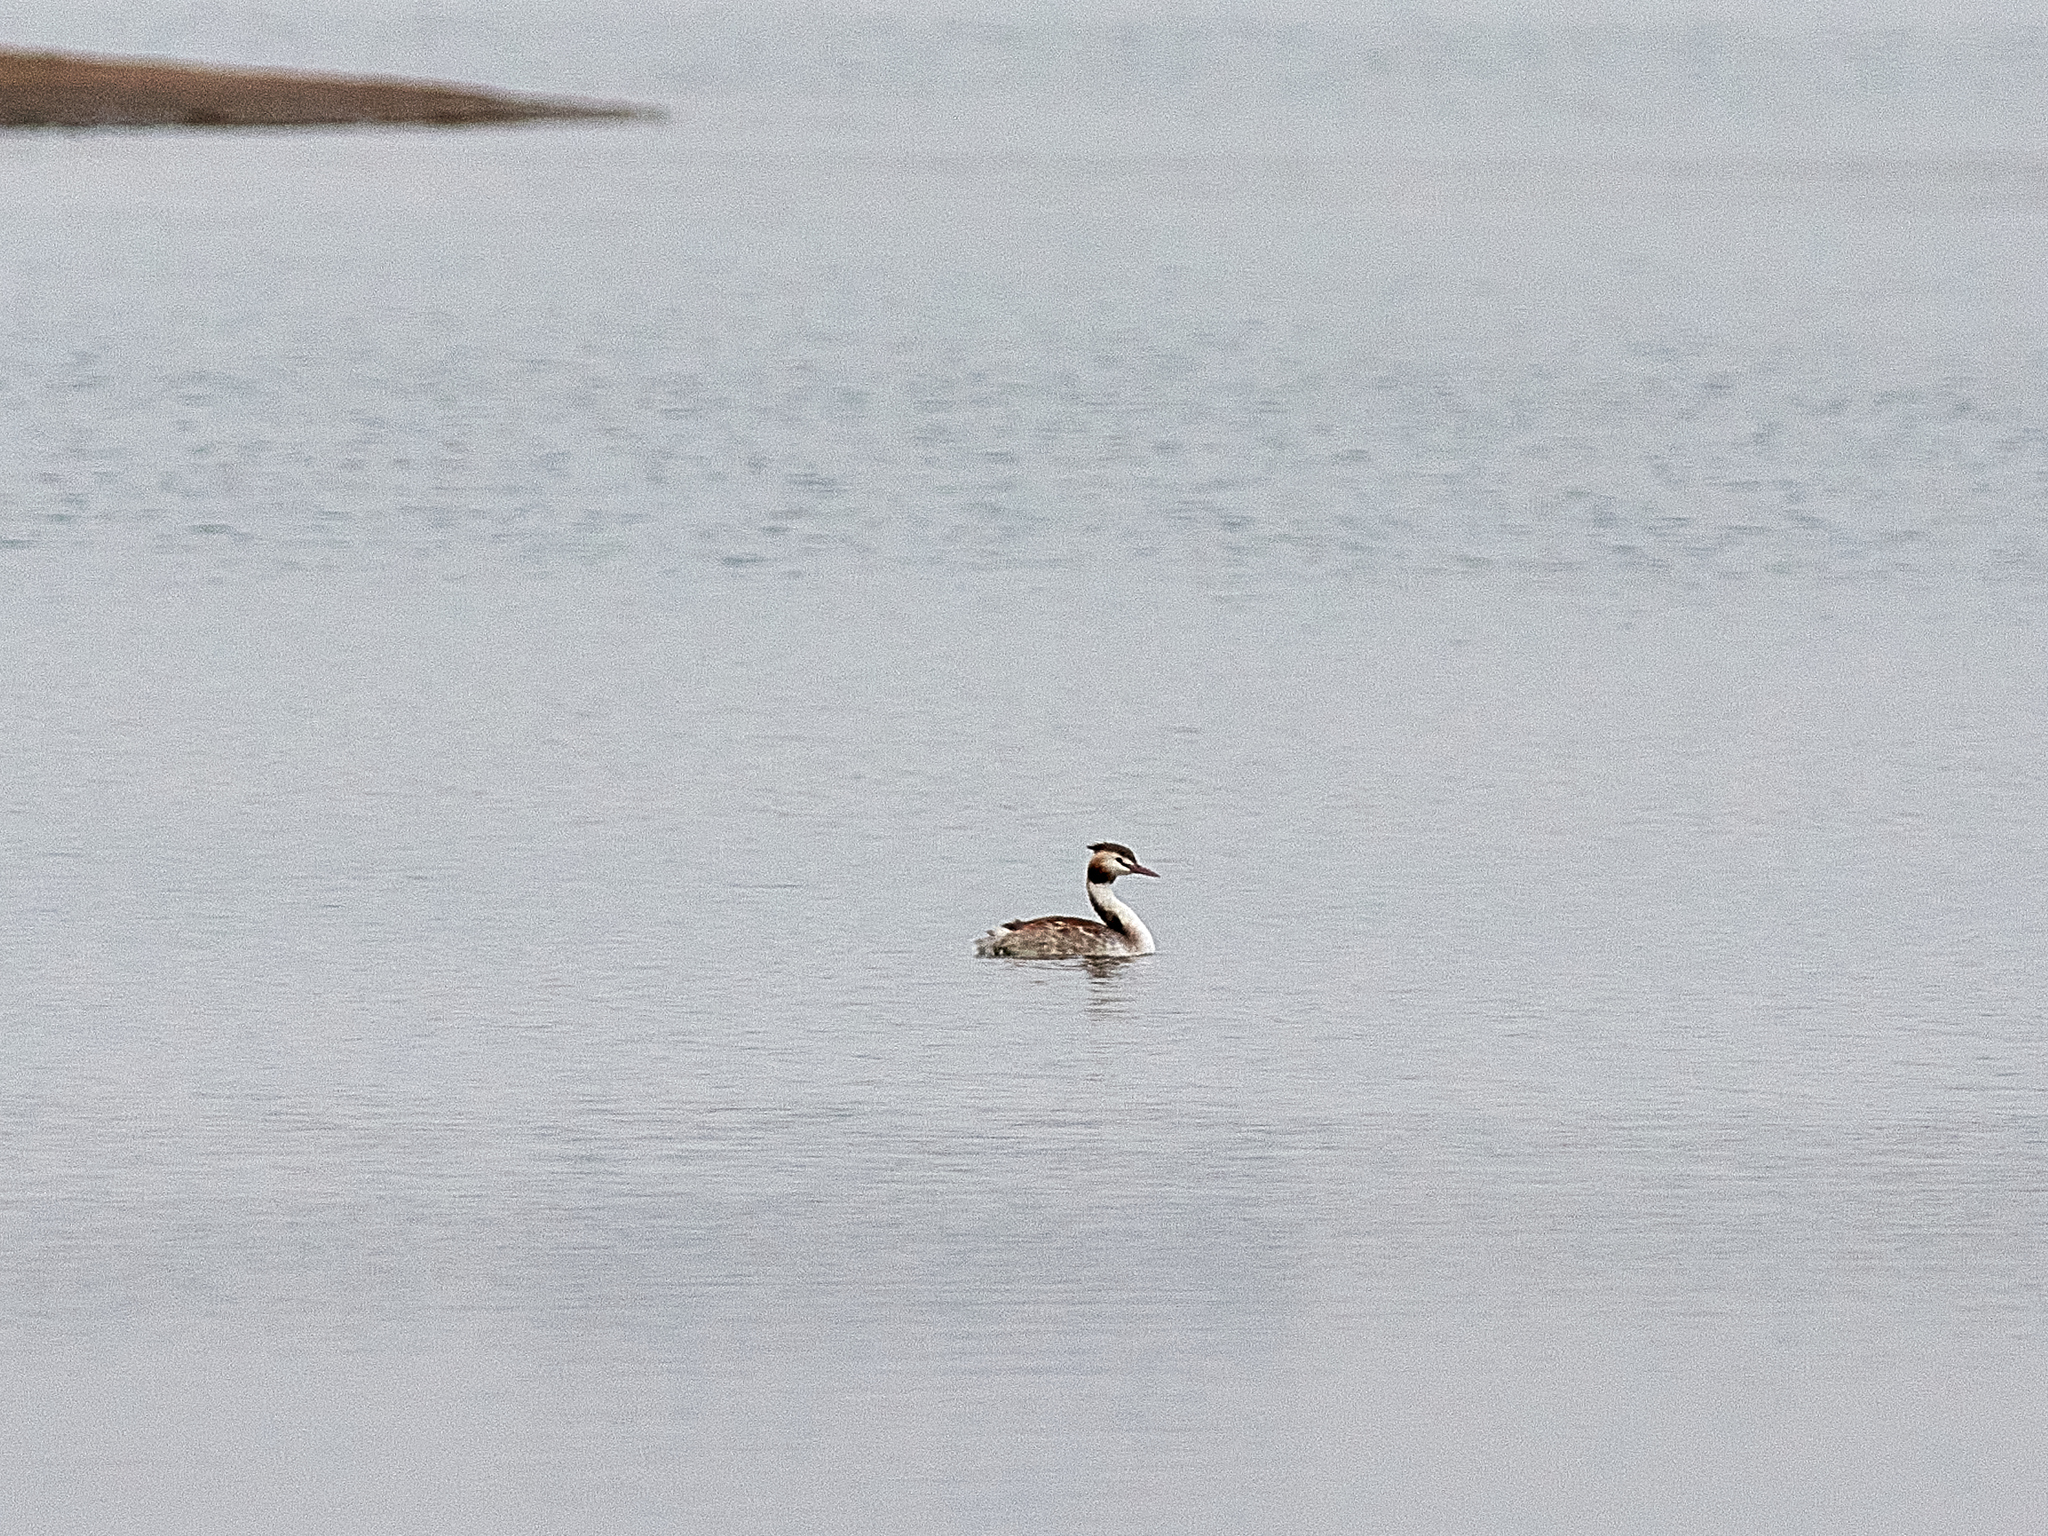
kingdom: Animalia
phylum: Chordata
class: Aves
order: Podicipediformes
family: Podicipedidae
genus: Podiceps
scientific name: Podiceps cristatus
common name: Great crested grebe
